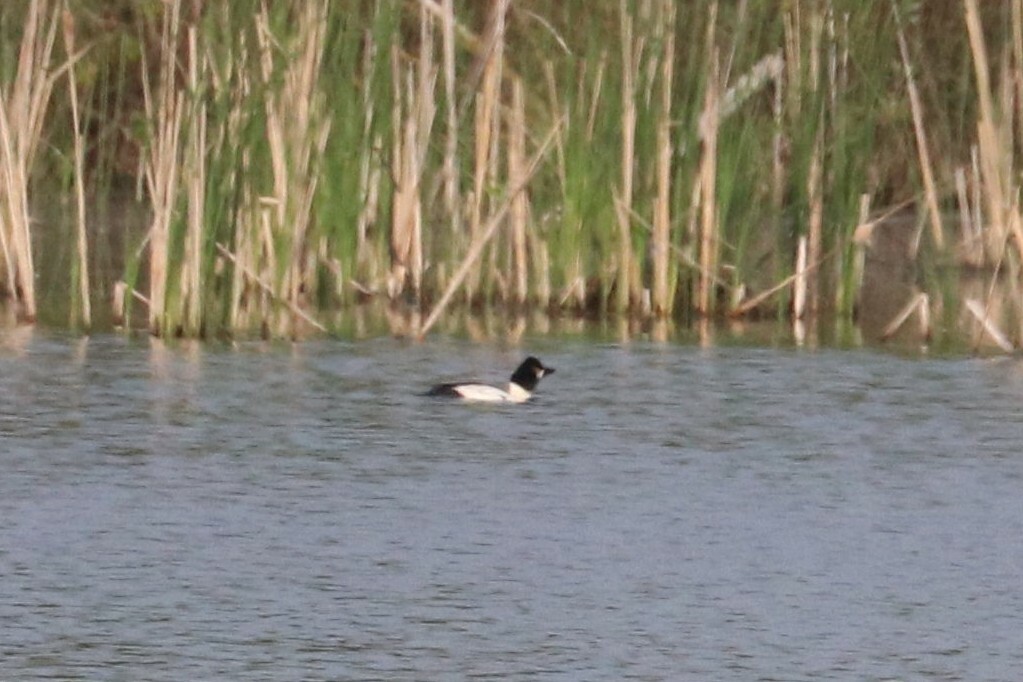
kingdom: Animalia
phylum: Chordata
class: Aves
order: Anseriformes
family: Anatidae
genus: Bucephala
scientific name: Bucephala clangula
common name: Common goldeneye
